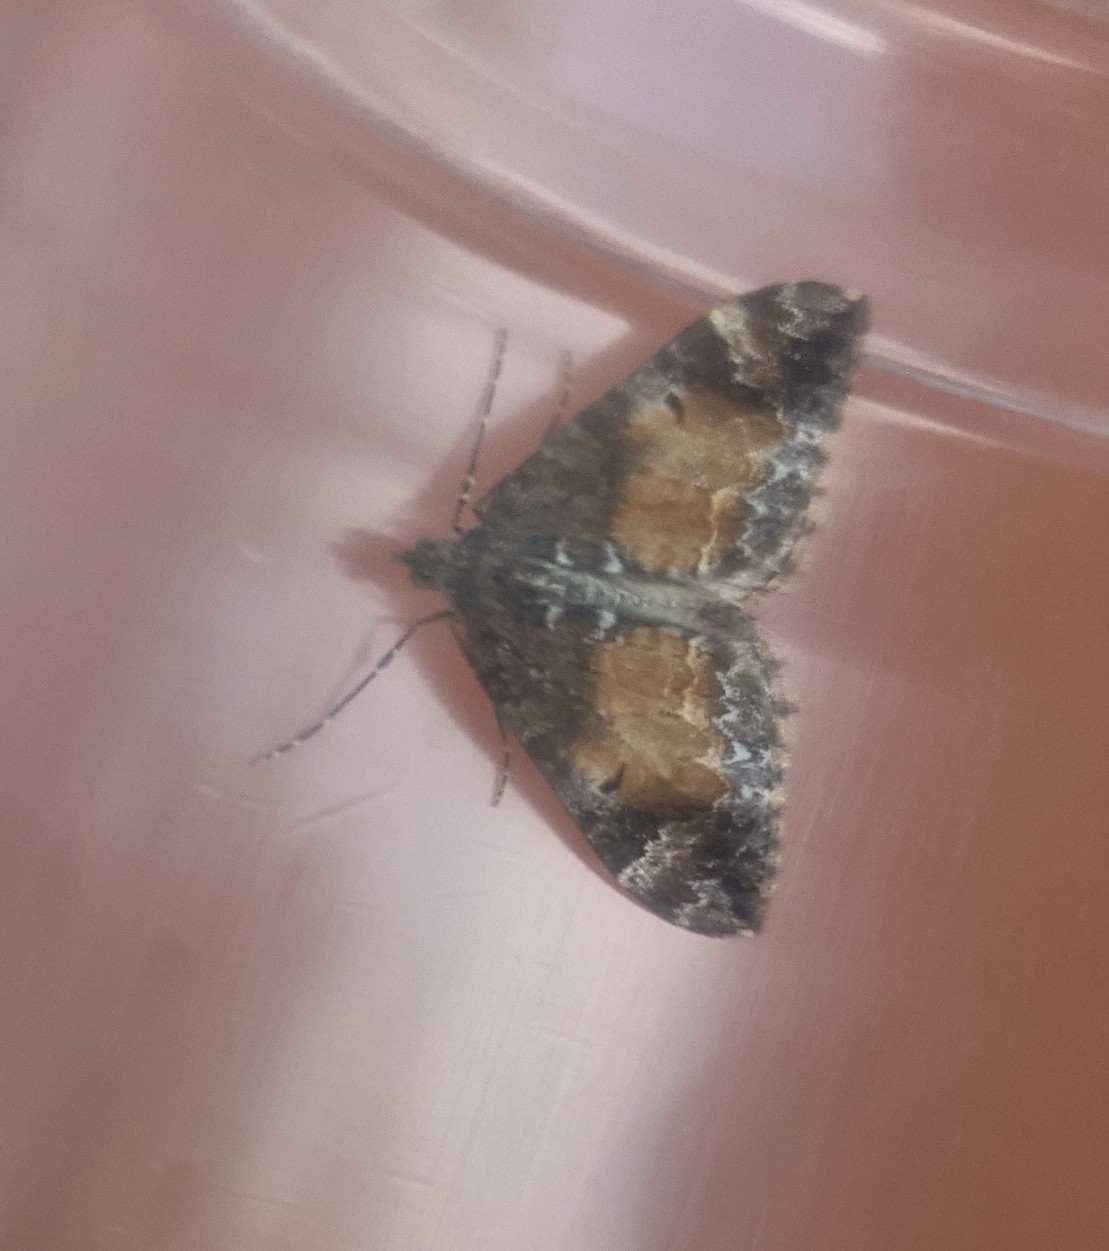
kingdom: Animalia
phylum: Arthropoda
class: Insecta
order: Lepidoptera
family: Geometridae
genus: Dysstroma
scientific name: Dysstroma truncata
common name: Common marbled carpet
